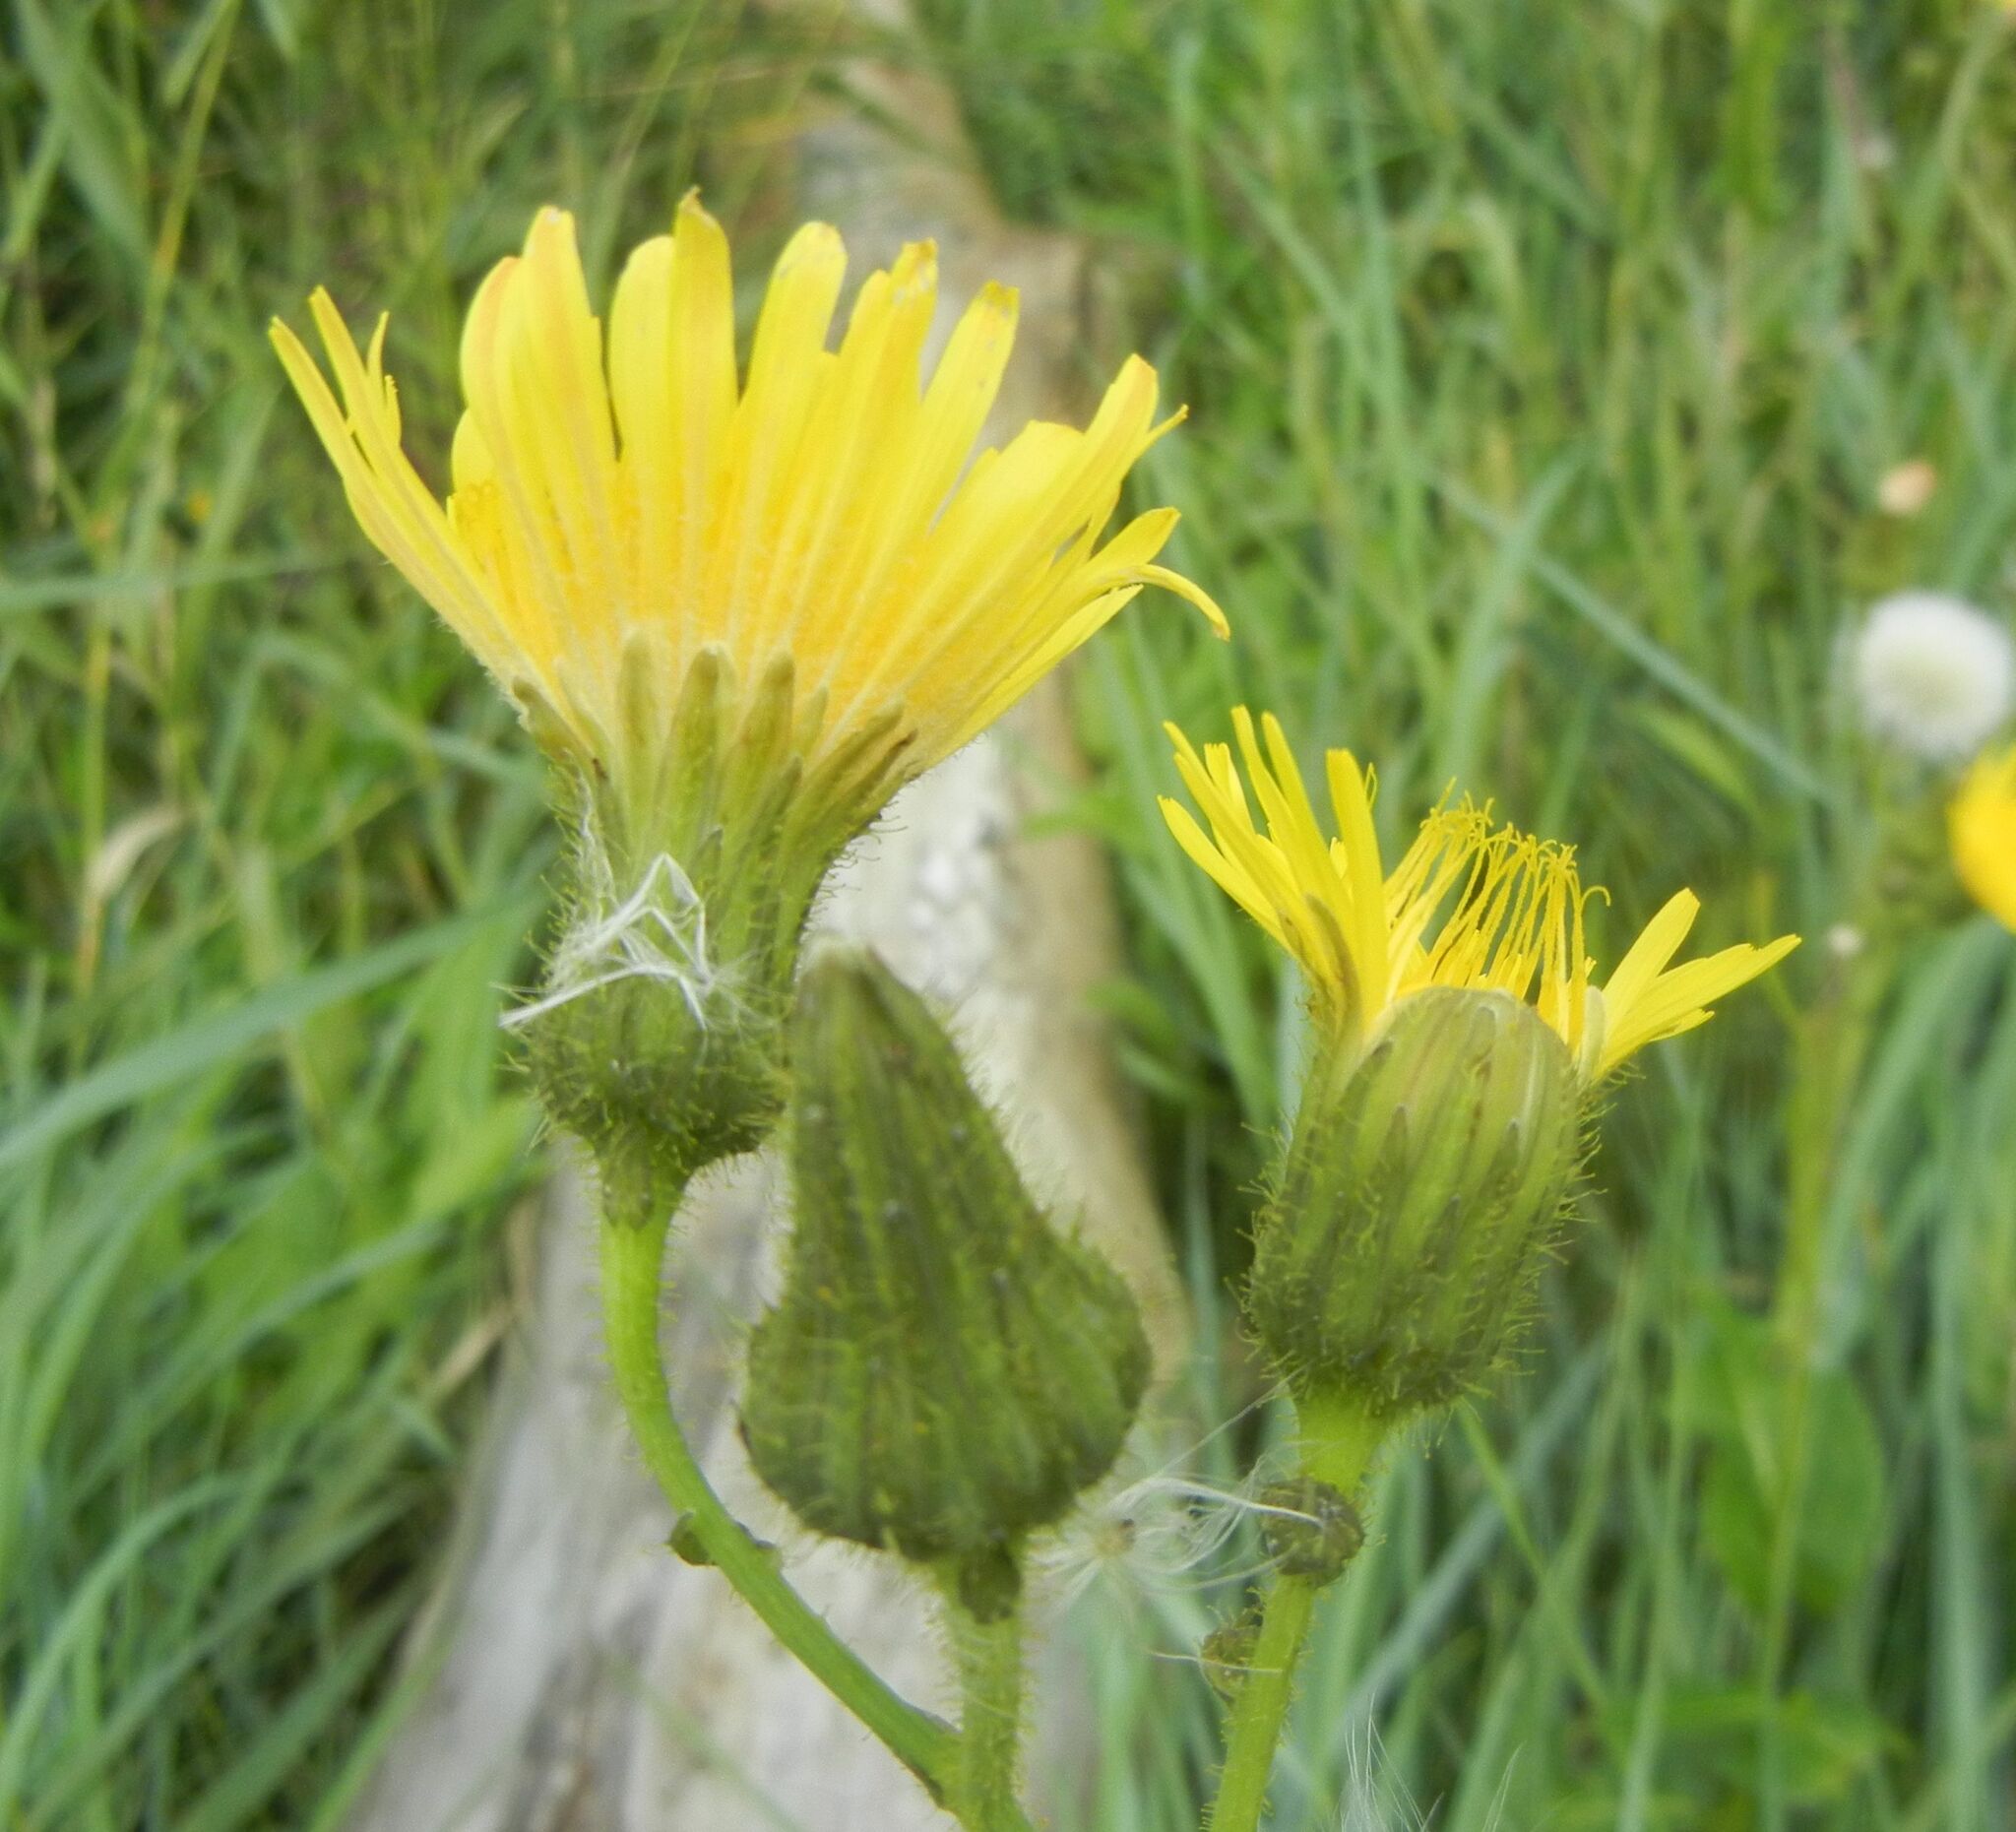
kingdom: Plantae
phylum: Tracheophyta
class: Magnoliopsida
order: Asterales
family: Asteraceae
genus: Sonchus
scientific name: Sonchus arvensis
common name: Perennial sow-thistle
